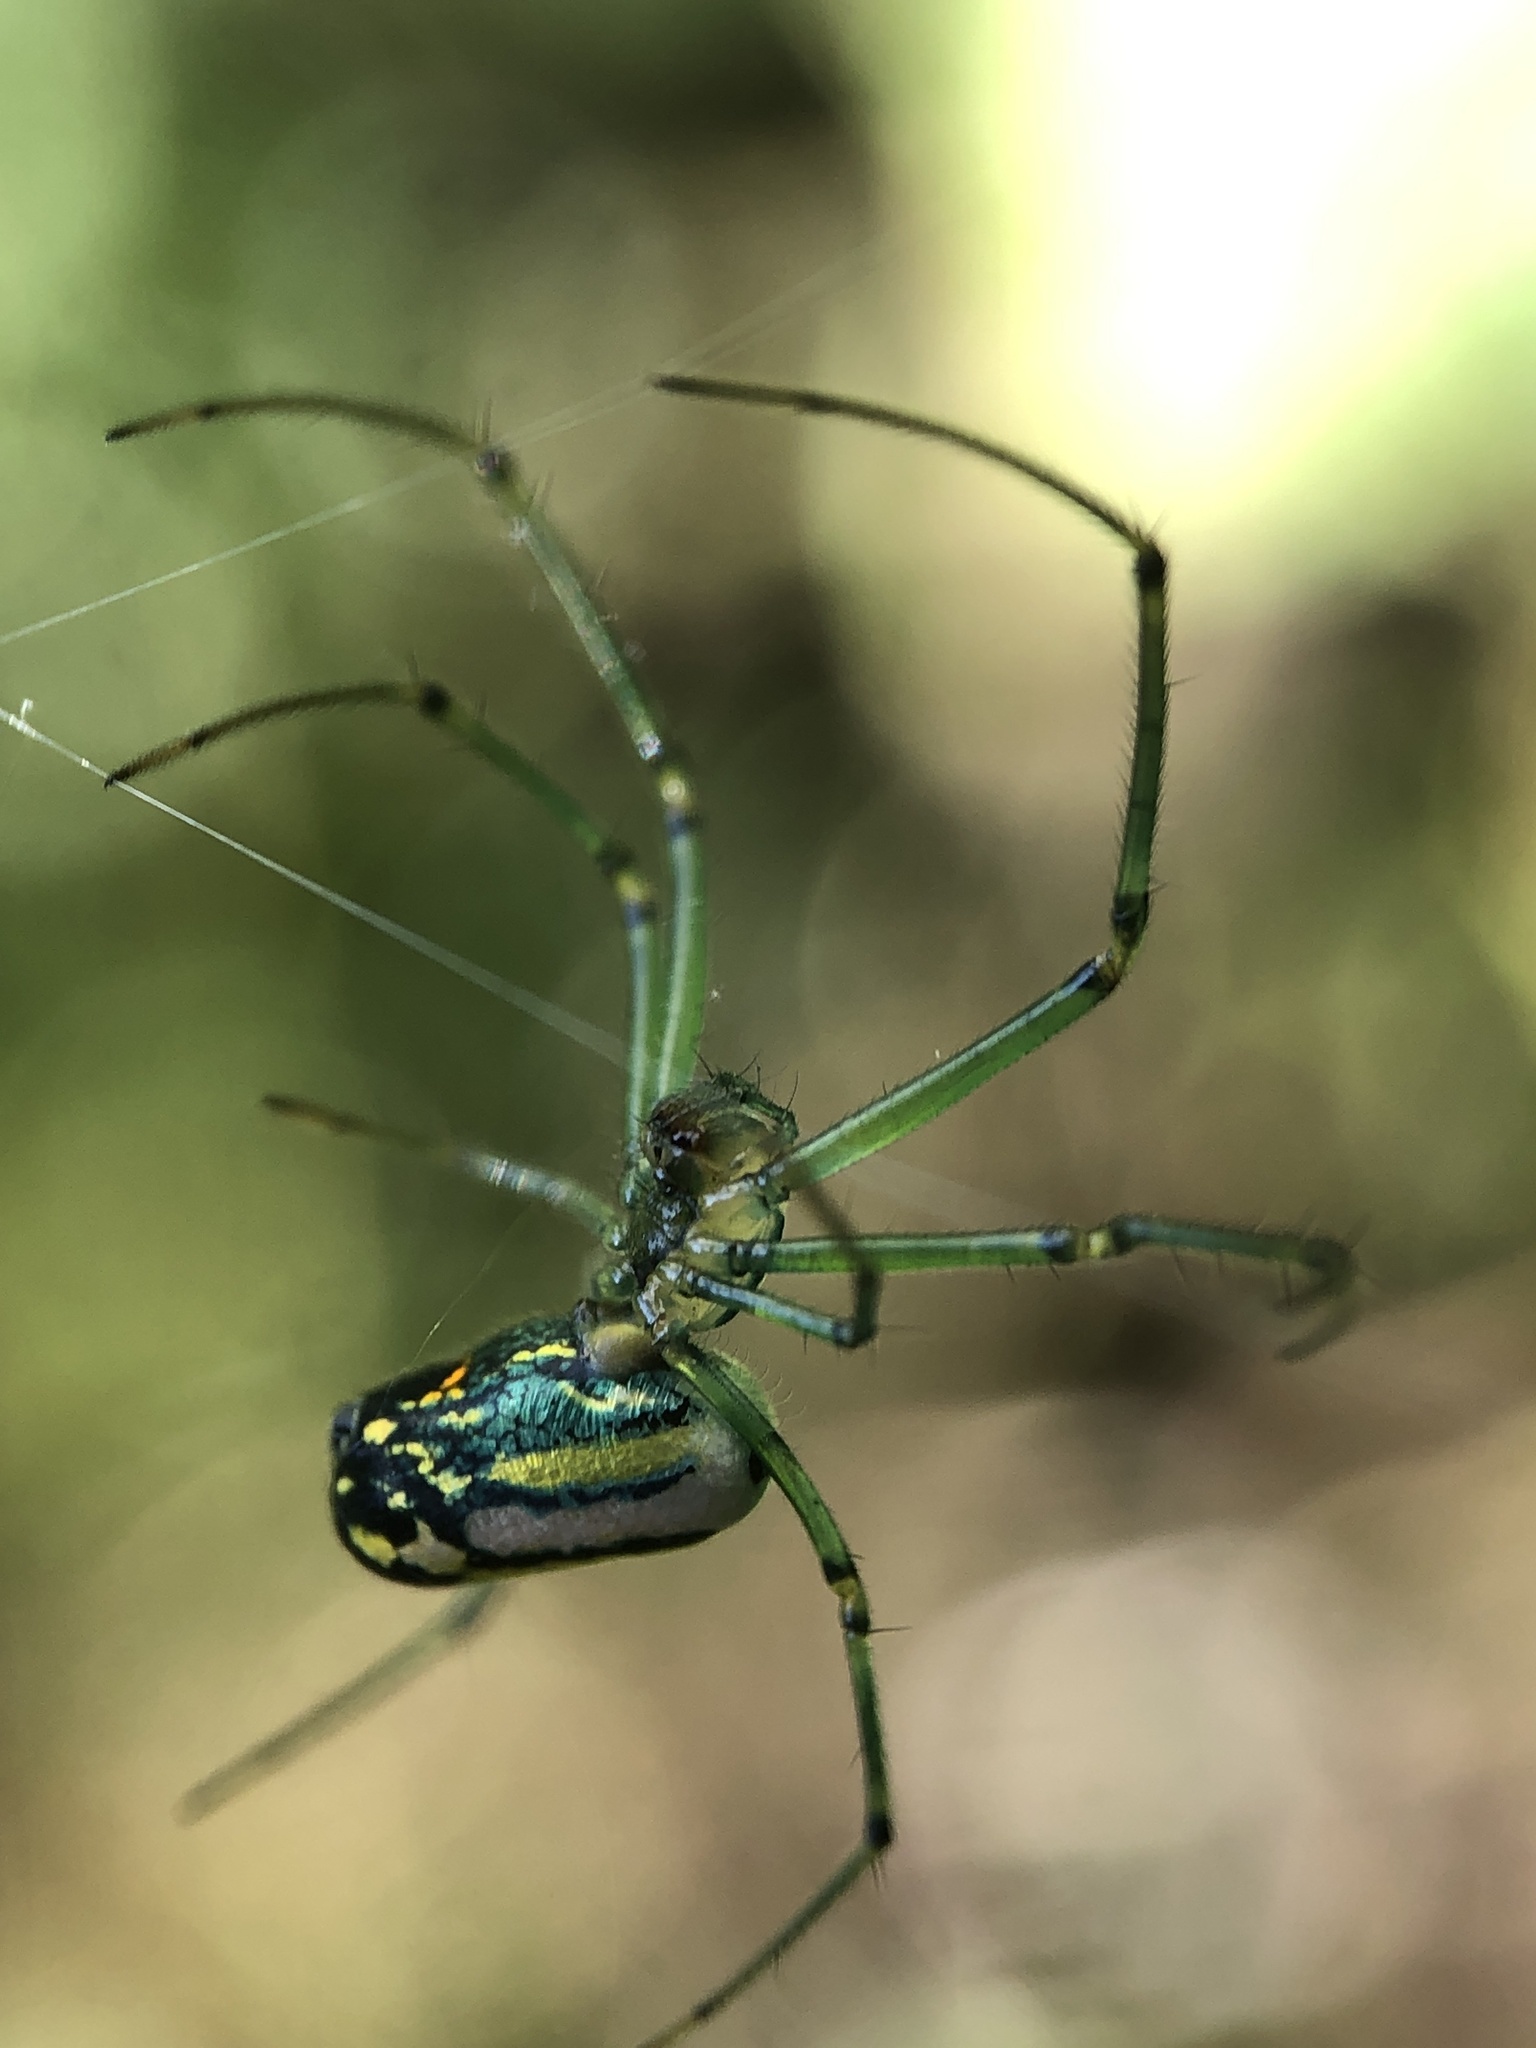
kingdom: Animalia
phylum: Arthropoda
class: Arachnida
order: Araneae
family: Tetragnathidae
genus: Leucauge
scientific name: Leucauge venusta
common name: Longjawed orb weavers
